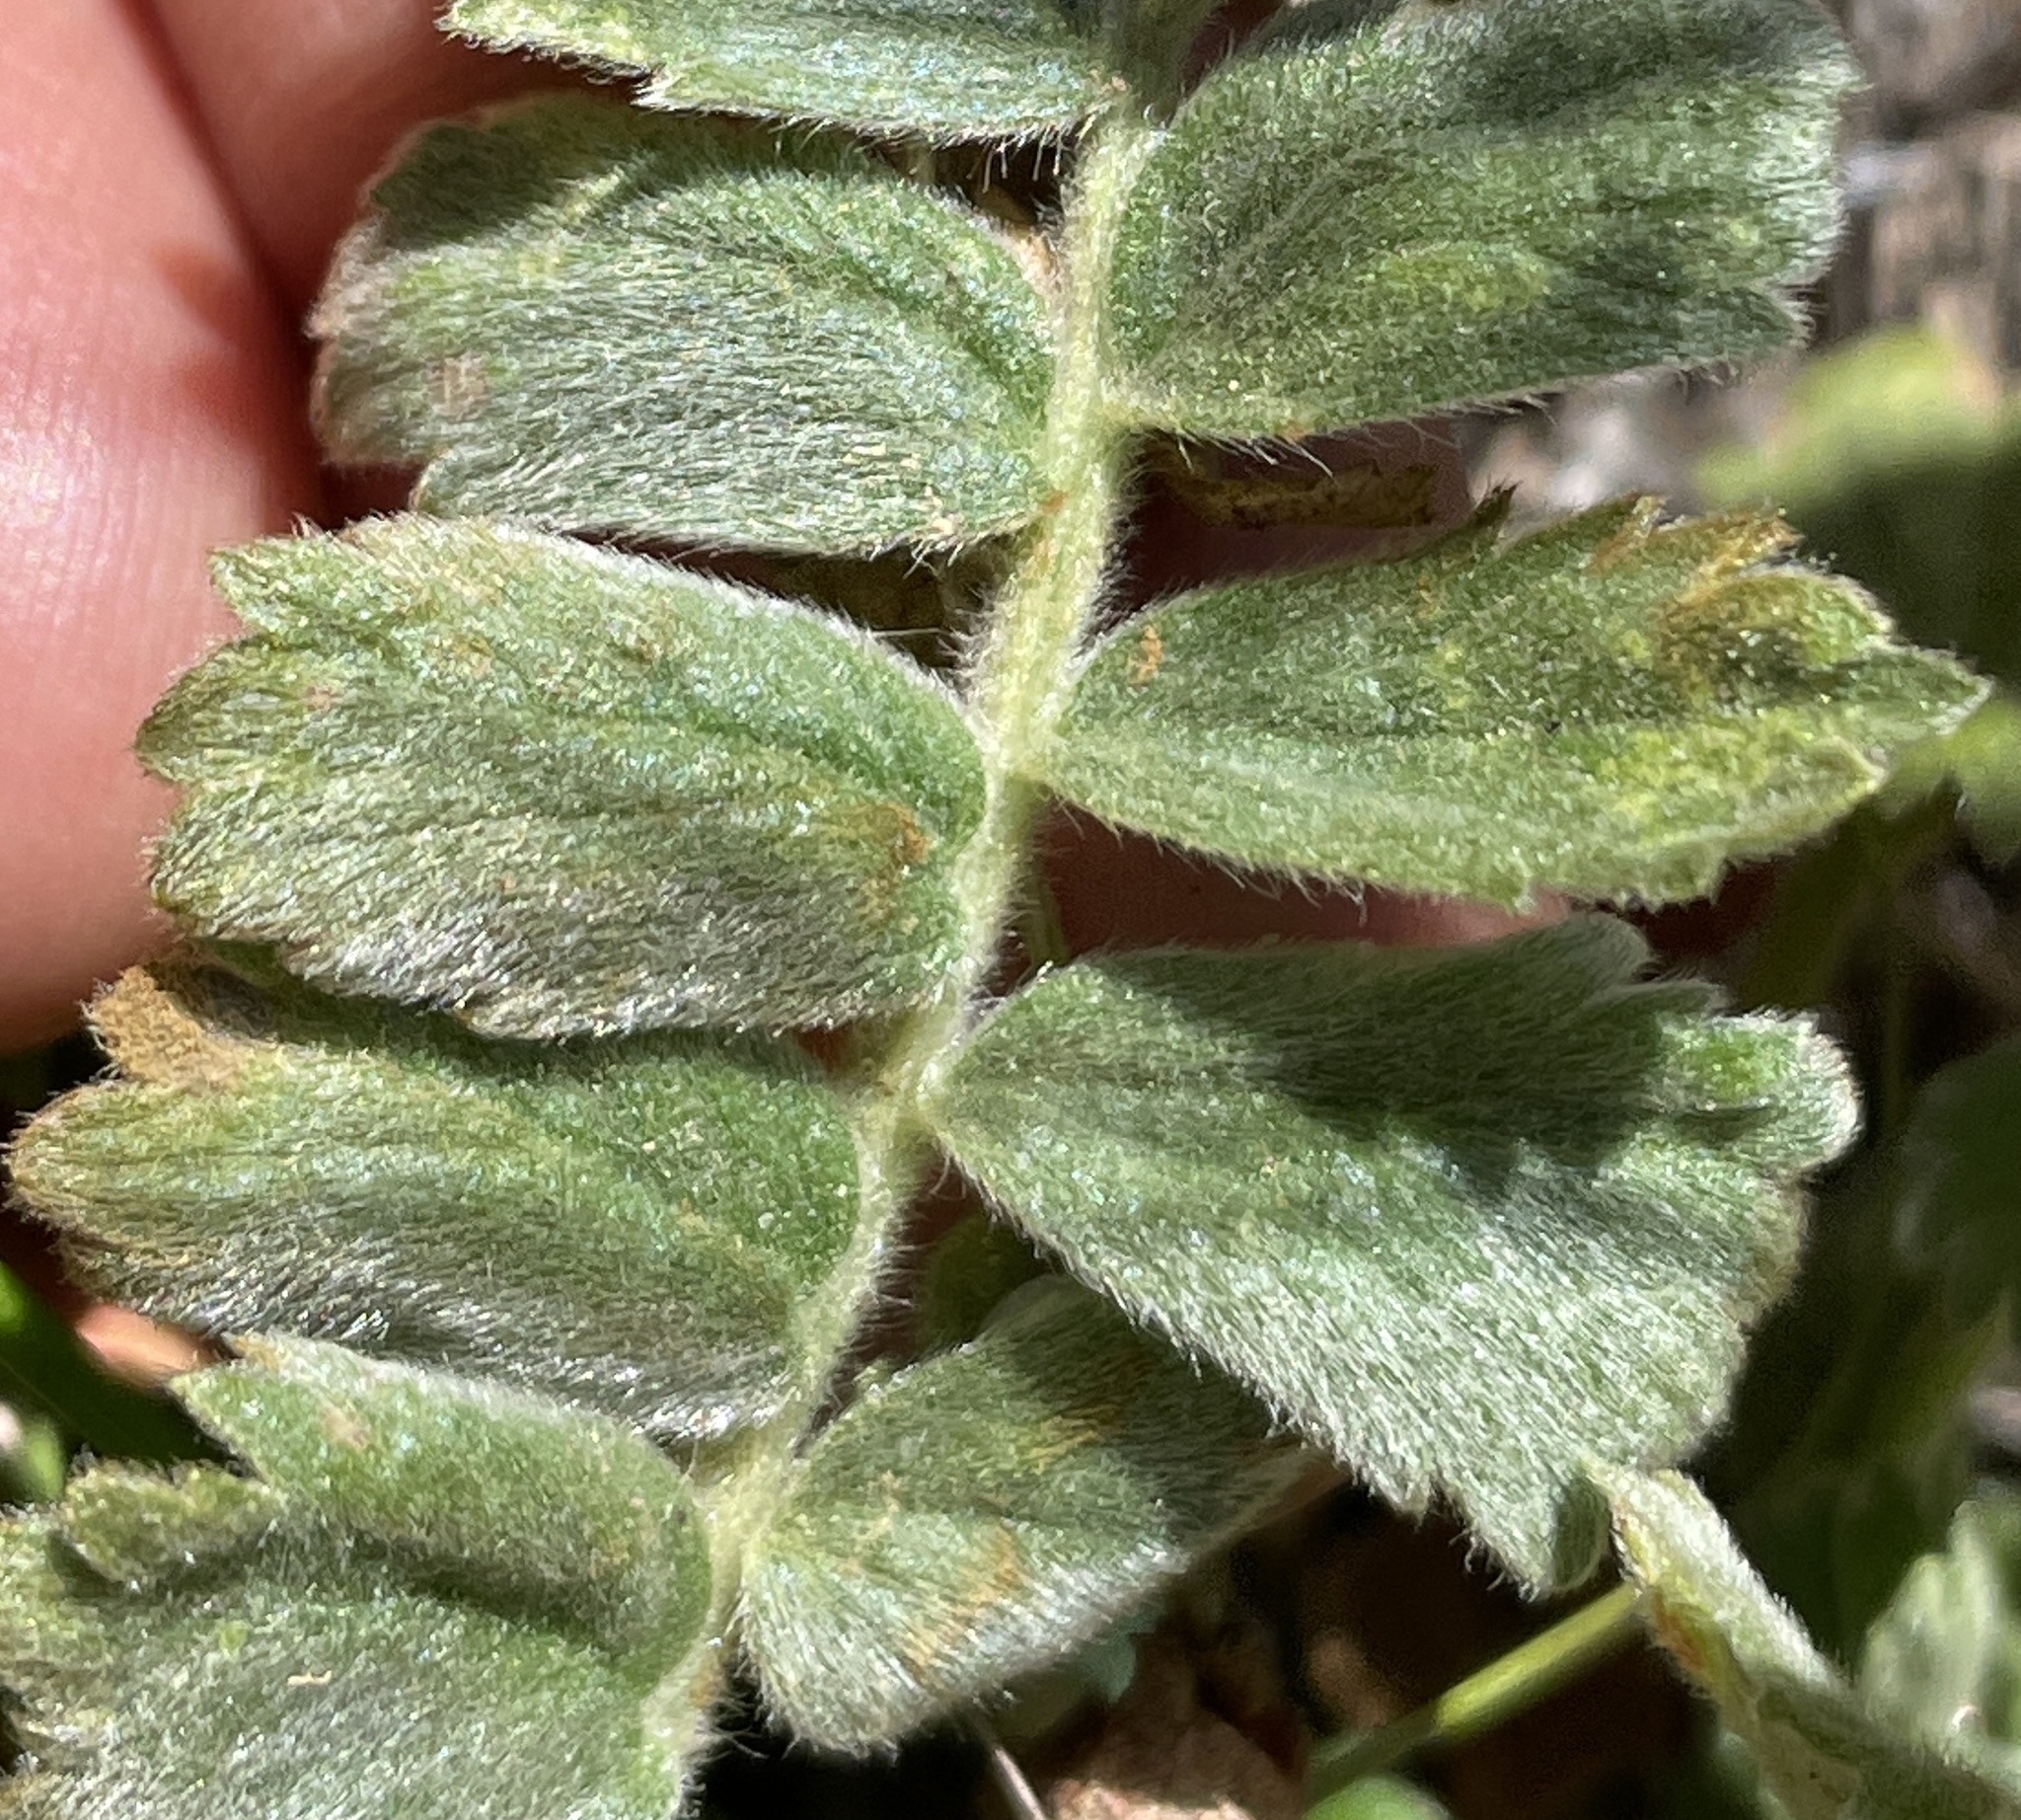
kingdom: Plantae
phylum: Tracheophyta
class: Magnoliopsida
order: Rosales
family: Rosaceae
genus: Potentilla
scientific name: Potentilla lindleyi
